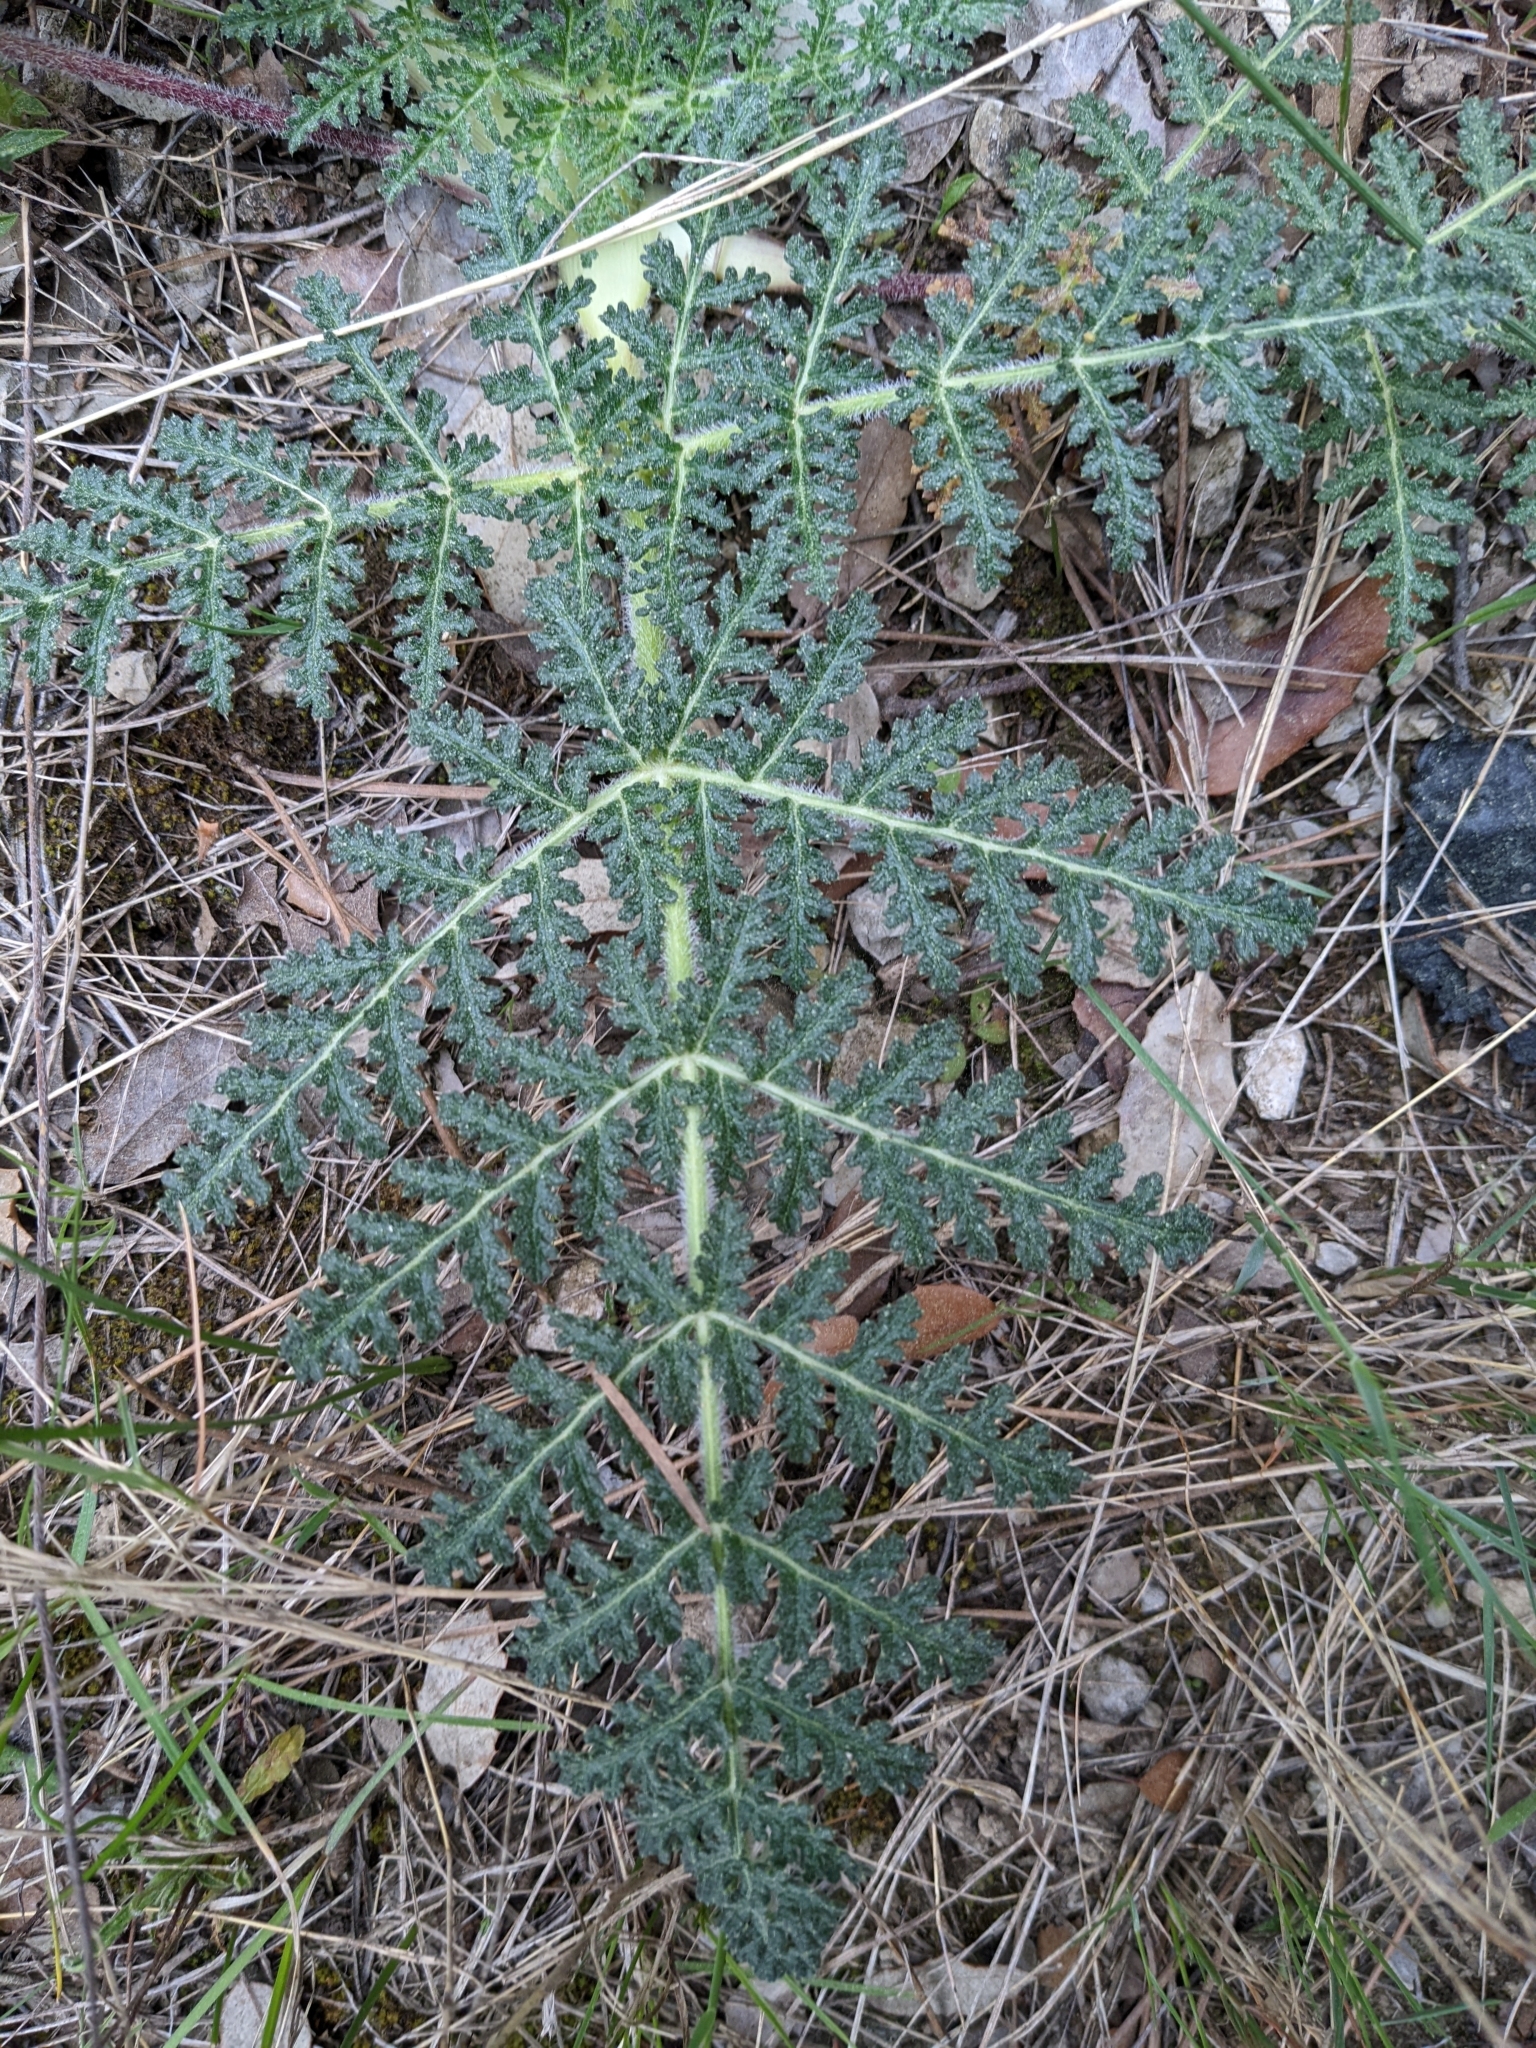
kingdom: Plantae
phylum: Tracheophyta
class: Magnoliopsida
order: Apiales
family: Apiaceae
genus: Thapsia
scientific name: Thapsia villosa
